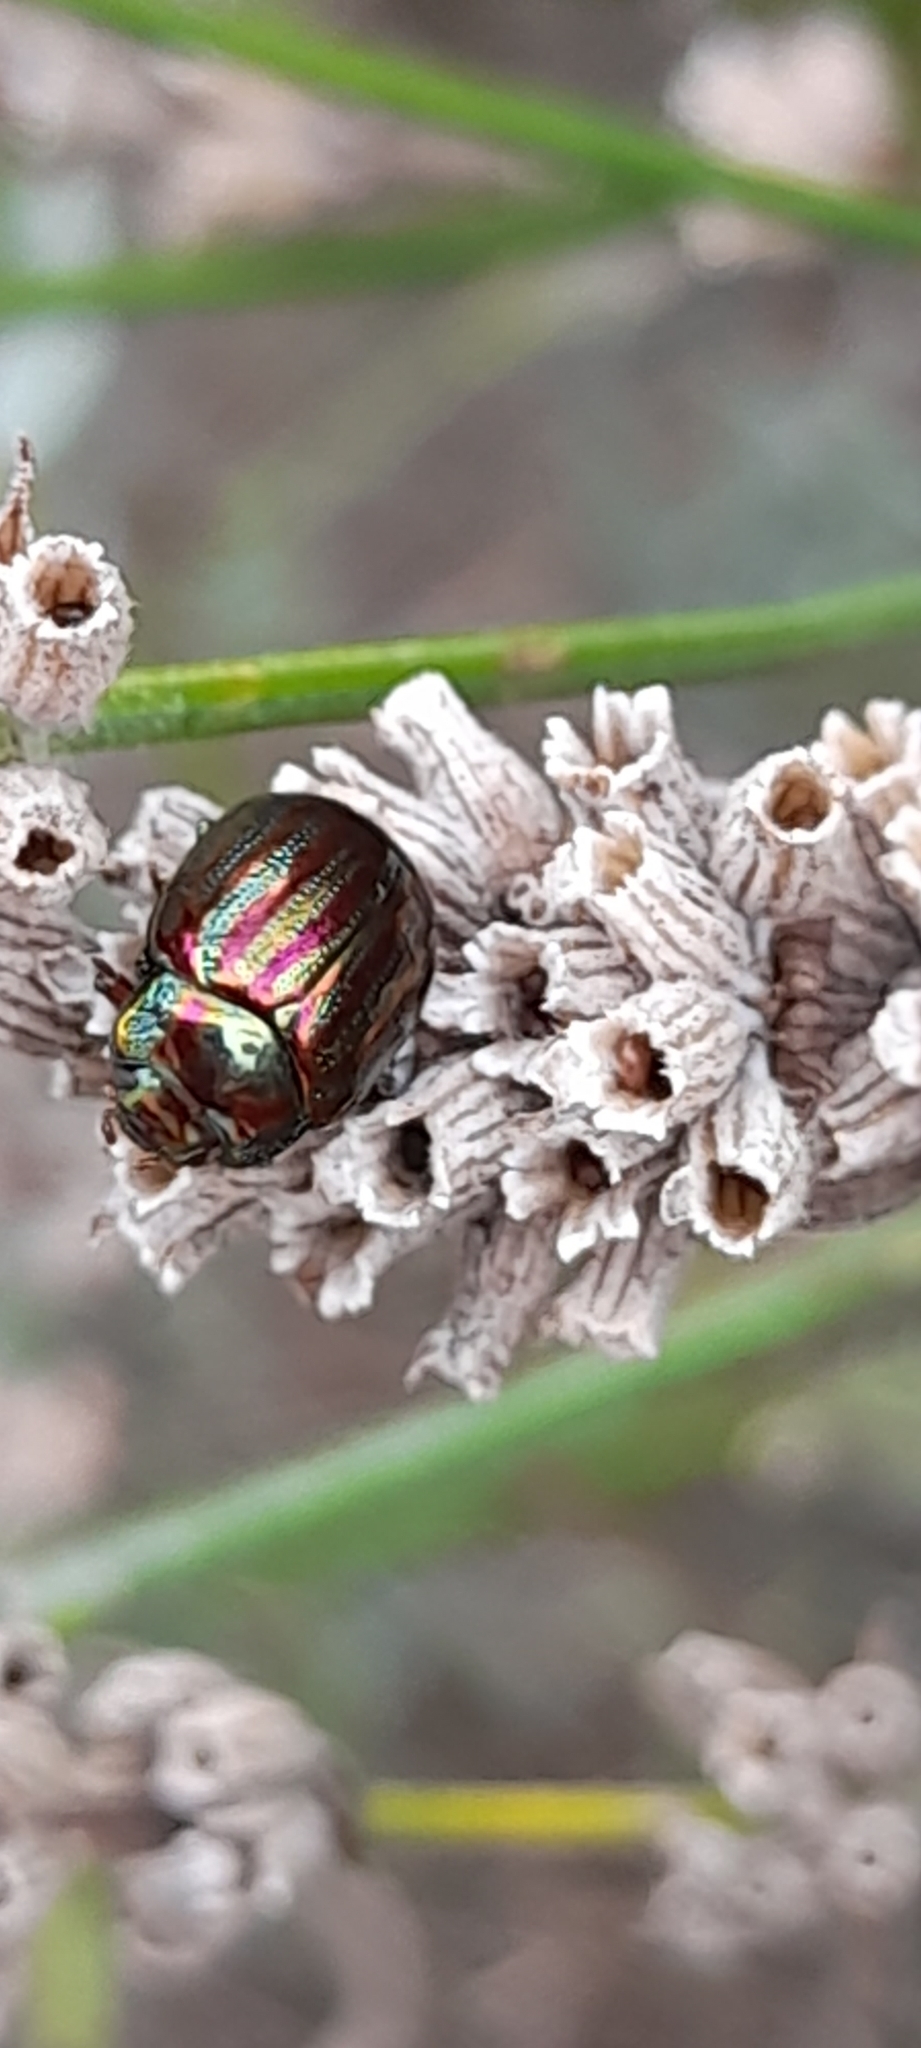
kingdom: Animalia
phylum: Arthropoda
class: Insecta
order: Coleoptera
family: Chrysomelidae
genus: Chrysolina
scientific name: Chrysolina americana
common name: Rosemary beetle
